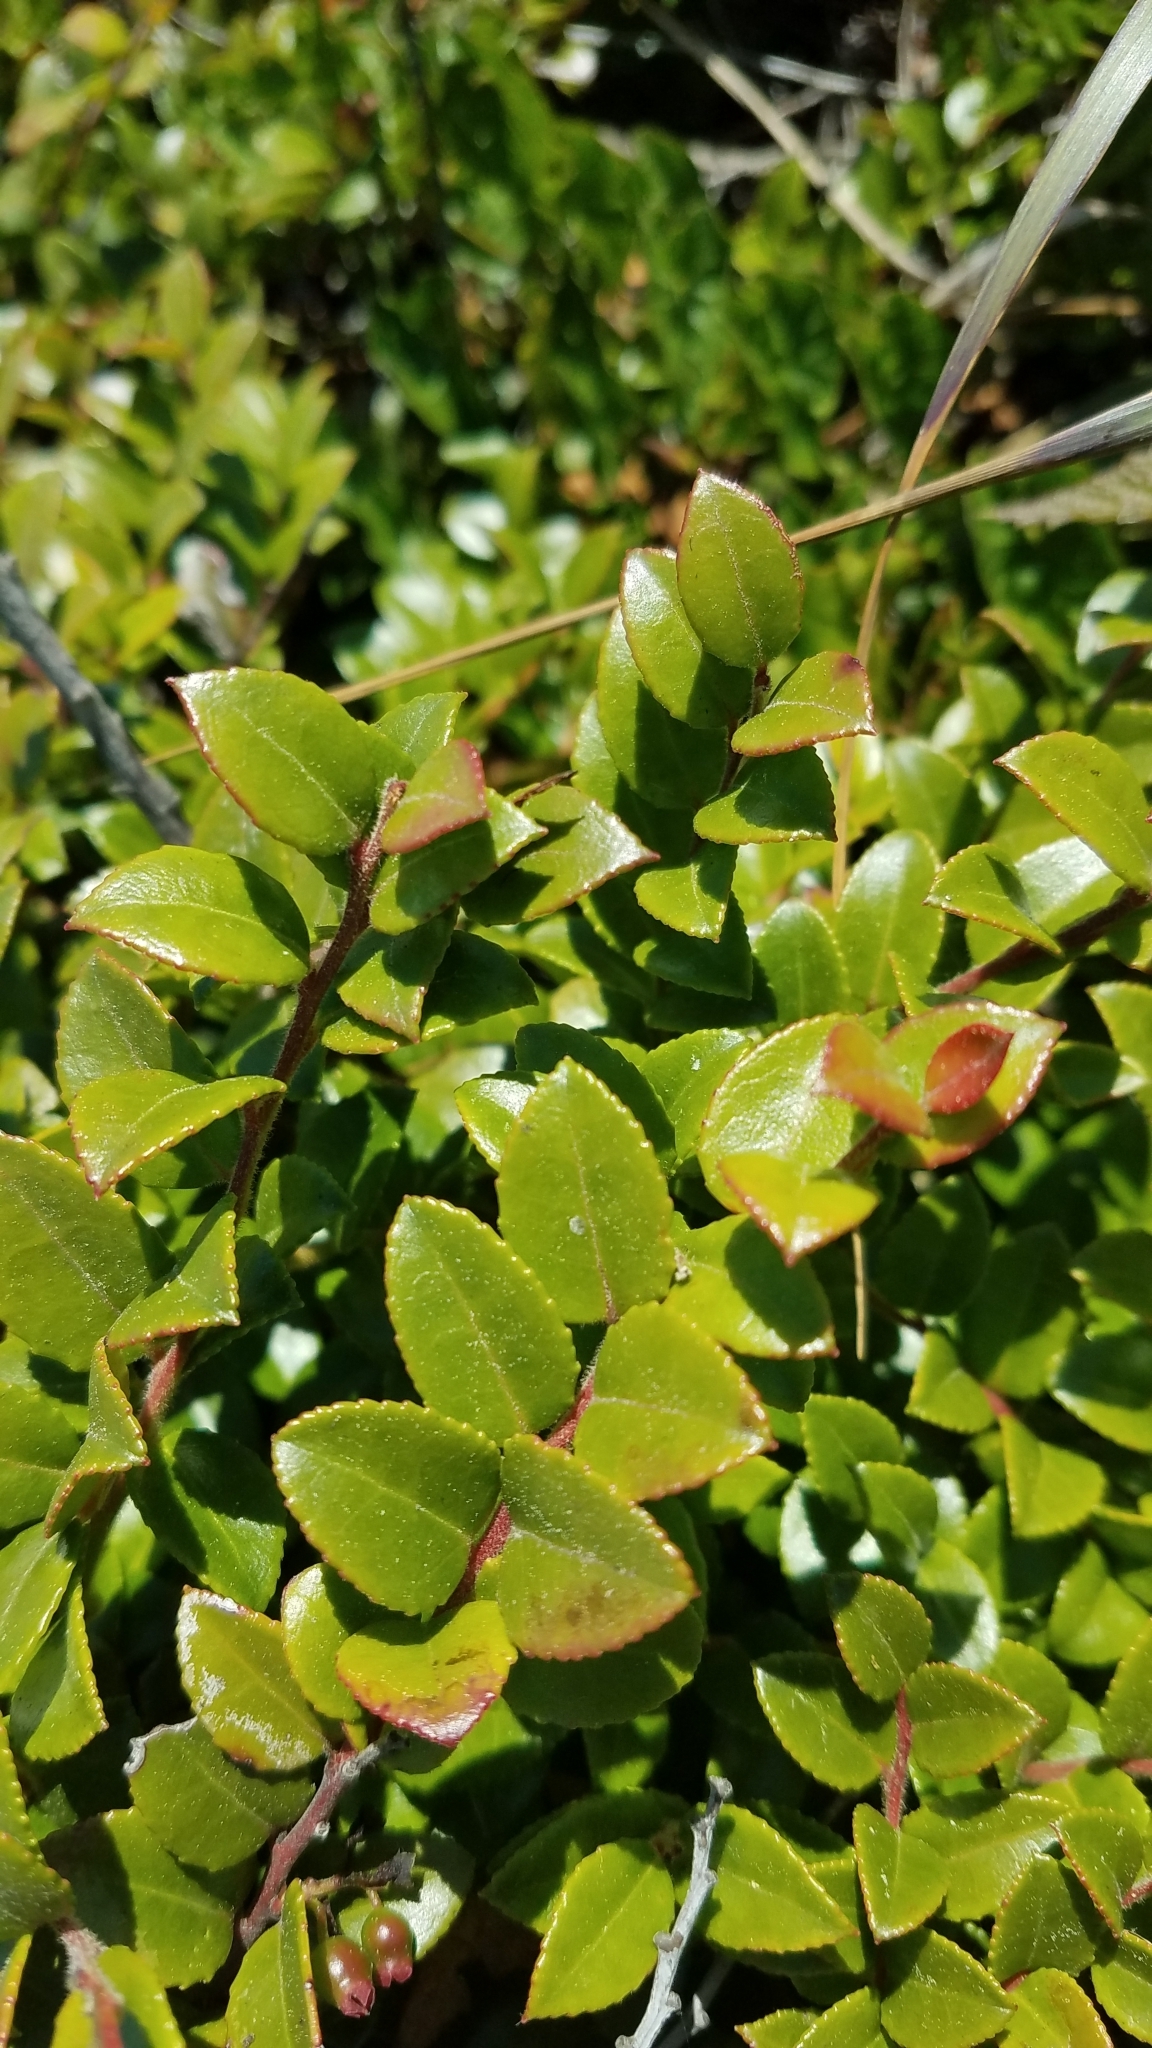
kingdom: Plantae
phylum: Tracheophyta
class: Magnoliopsida
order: Ericales
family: Ericaceae
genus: Vaccinium
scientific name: Vaccinium ovatum
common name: California-huckleberry
